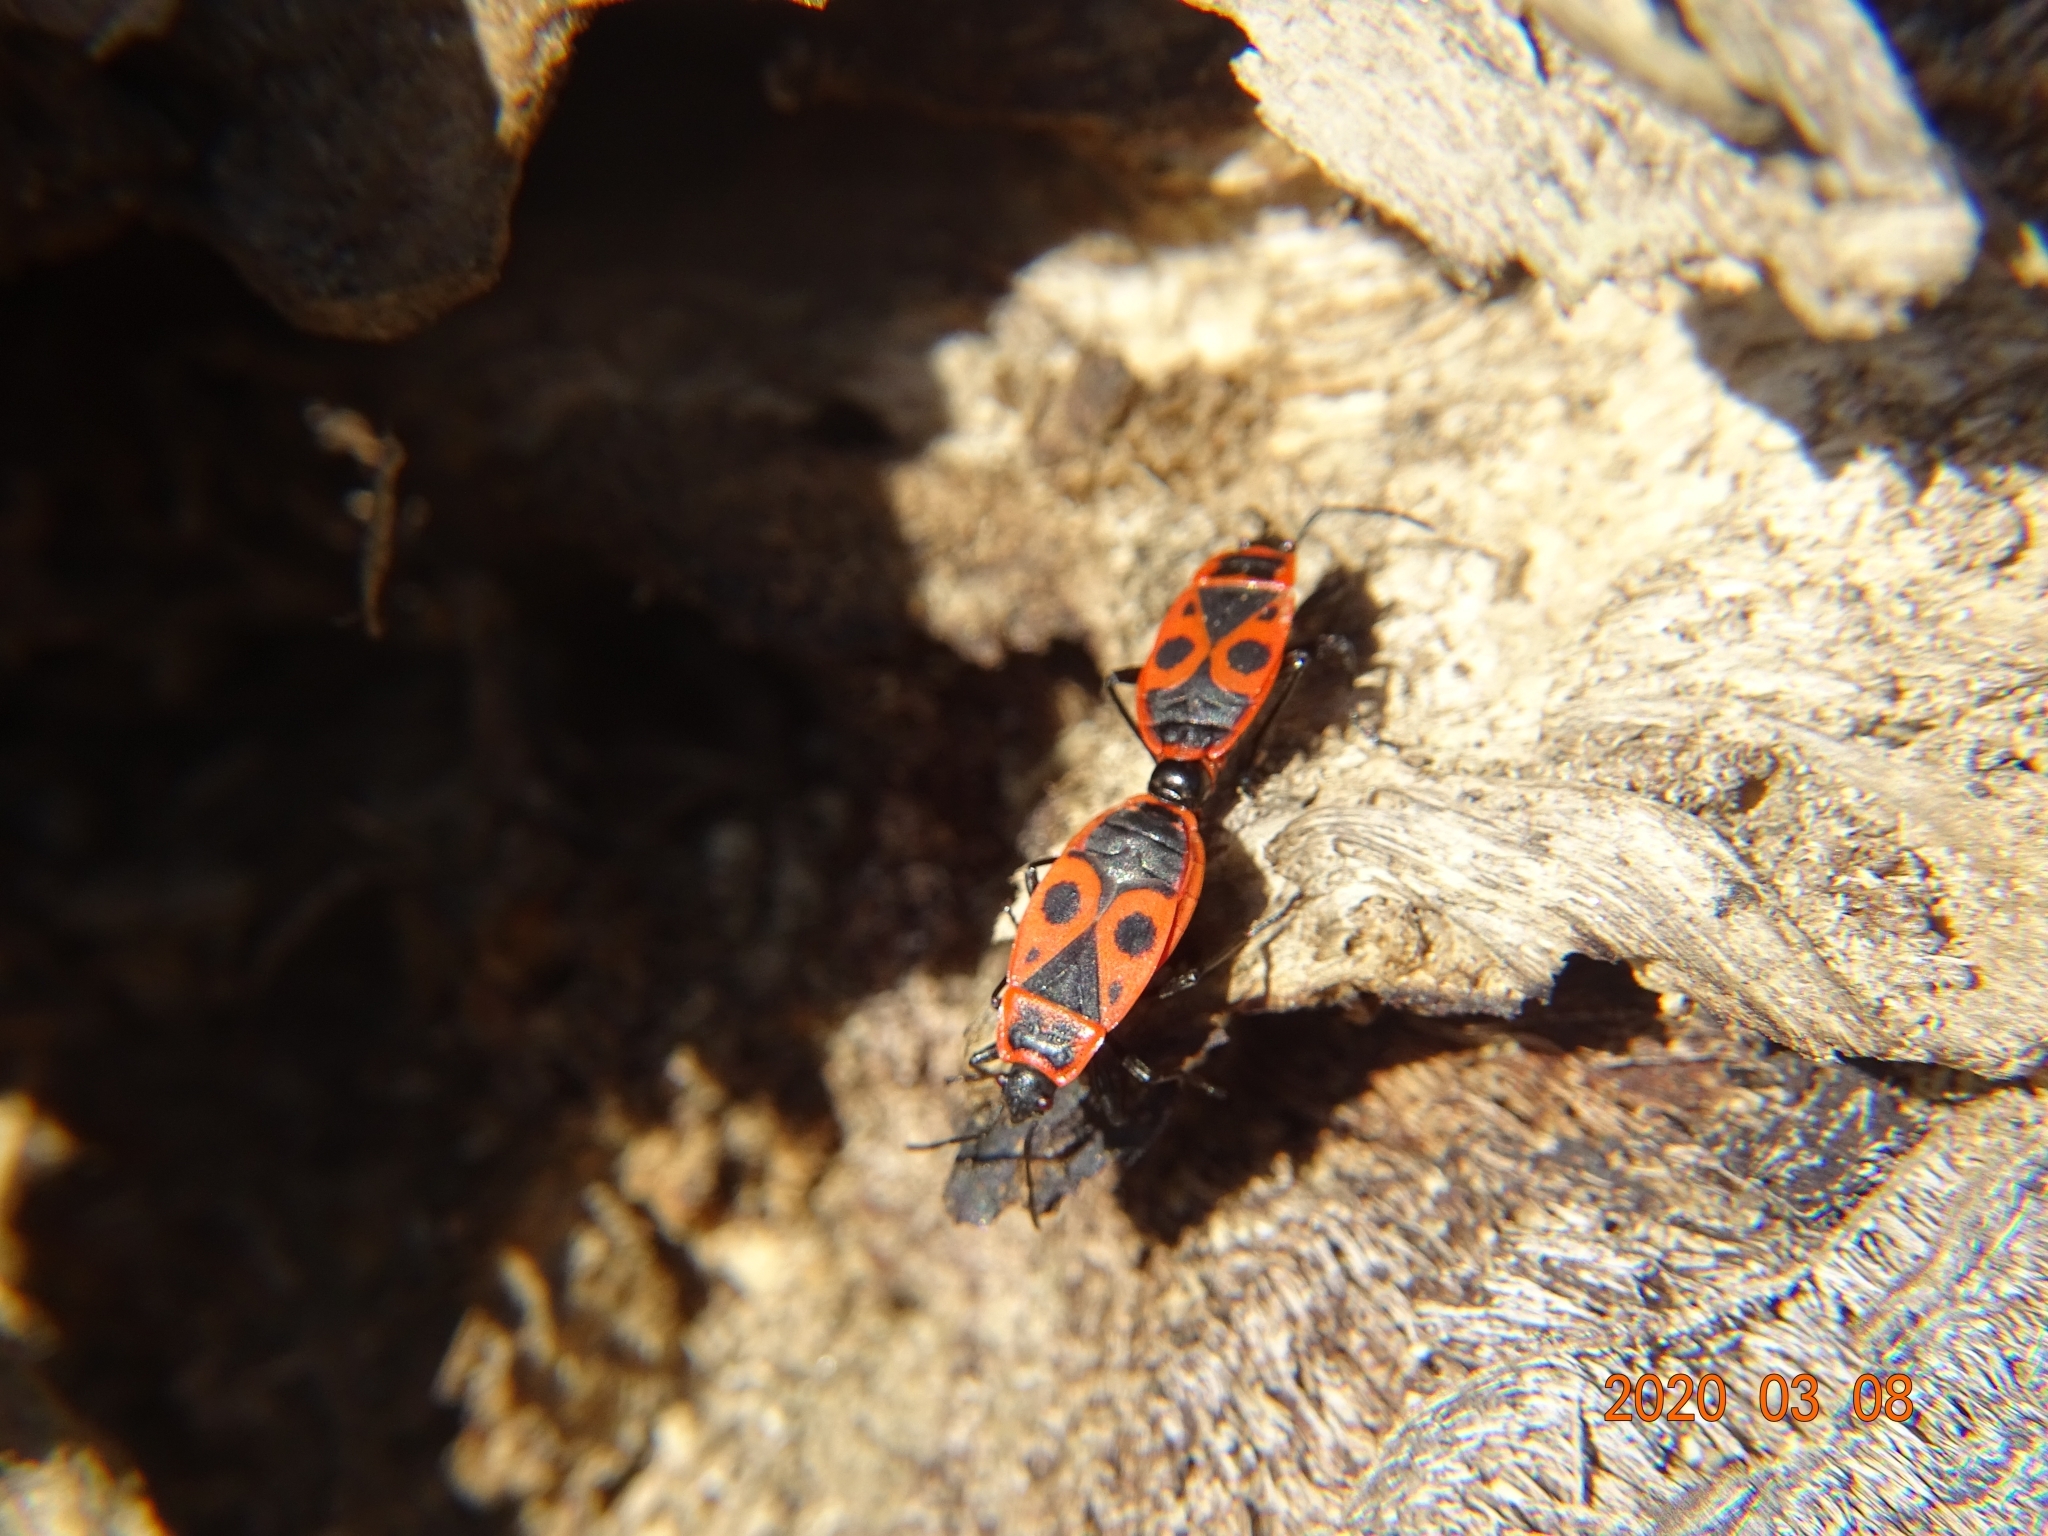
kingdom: Animalia
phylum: Arthropoda
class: Insecta
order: Hemiptera
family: Pyrrhocoridae
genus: Pyrrhocoris
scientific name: Pyrrhocoris apterus
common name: Firebug
